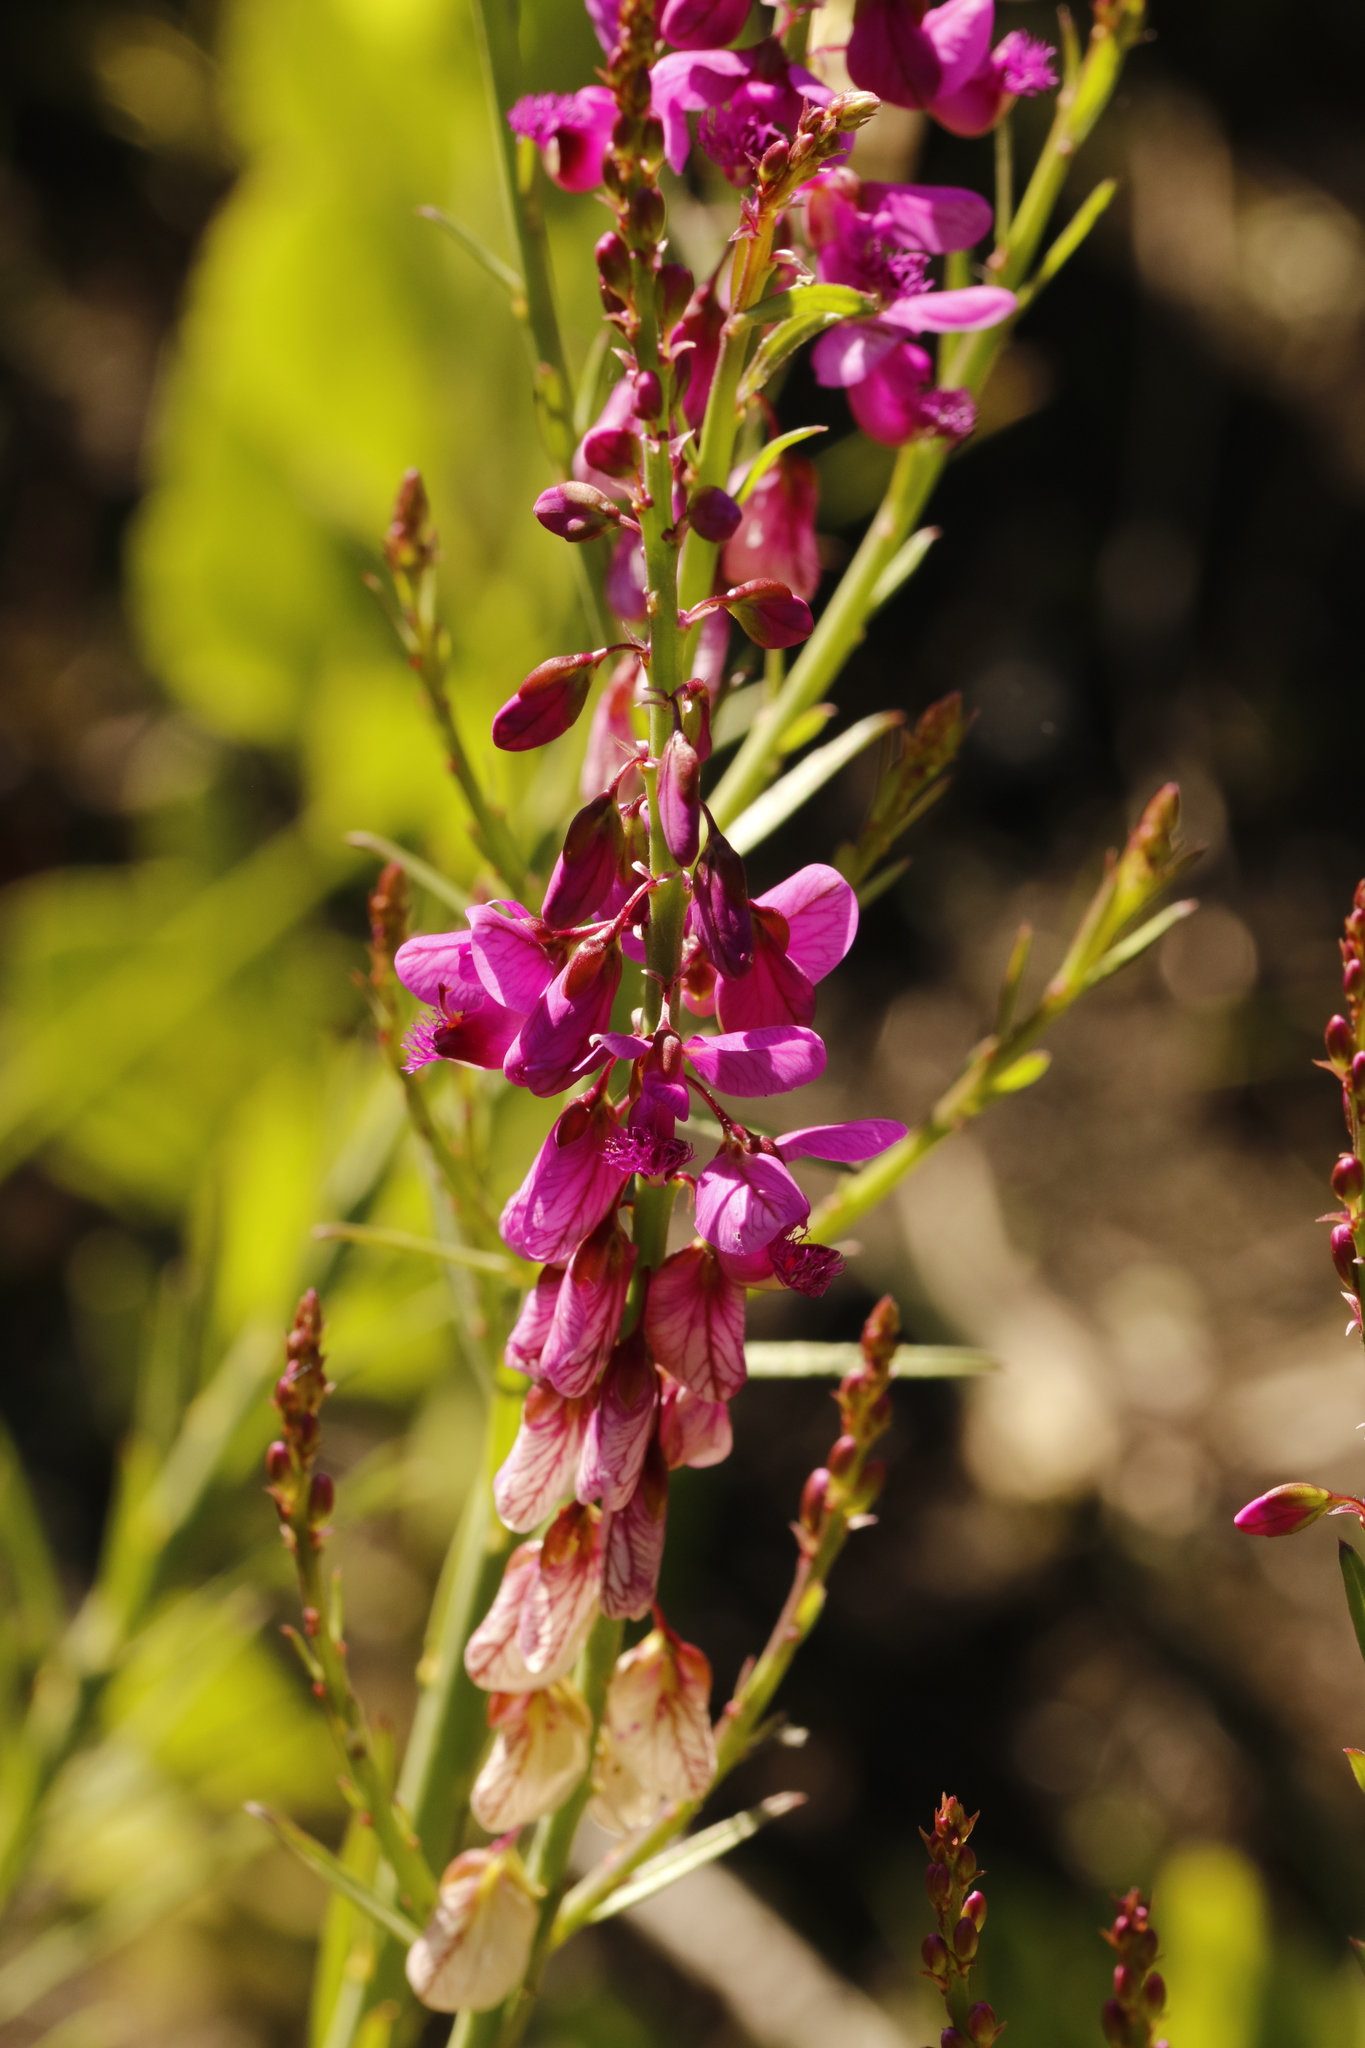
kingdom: Plantae
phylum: Tracheophyta
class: Magnoliopsida
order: Fabales
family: Polygalaceae
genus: Polygala
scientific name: Polygala virgata
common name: Milkwort
